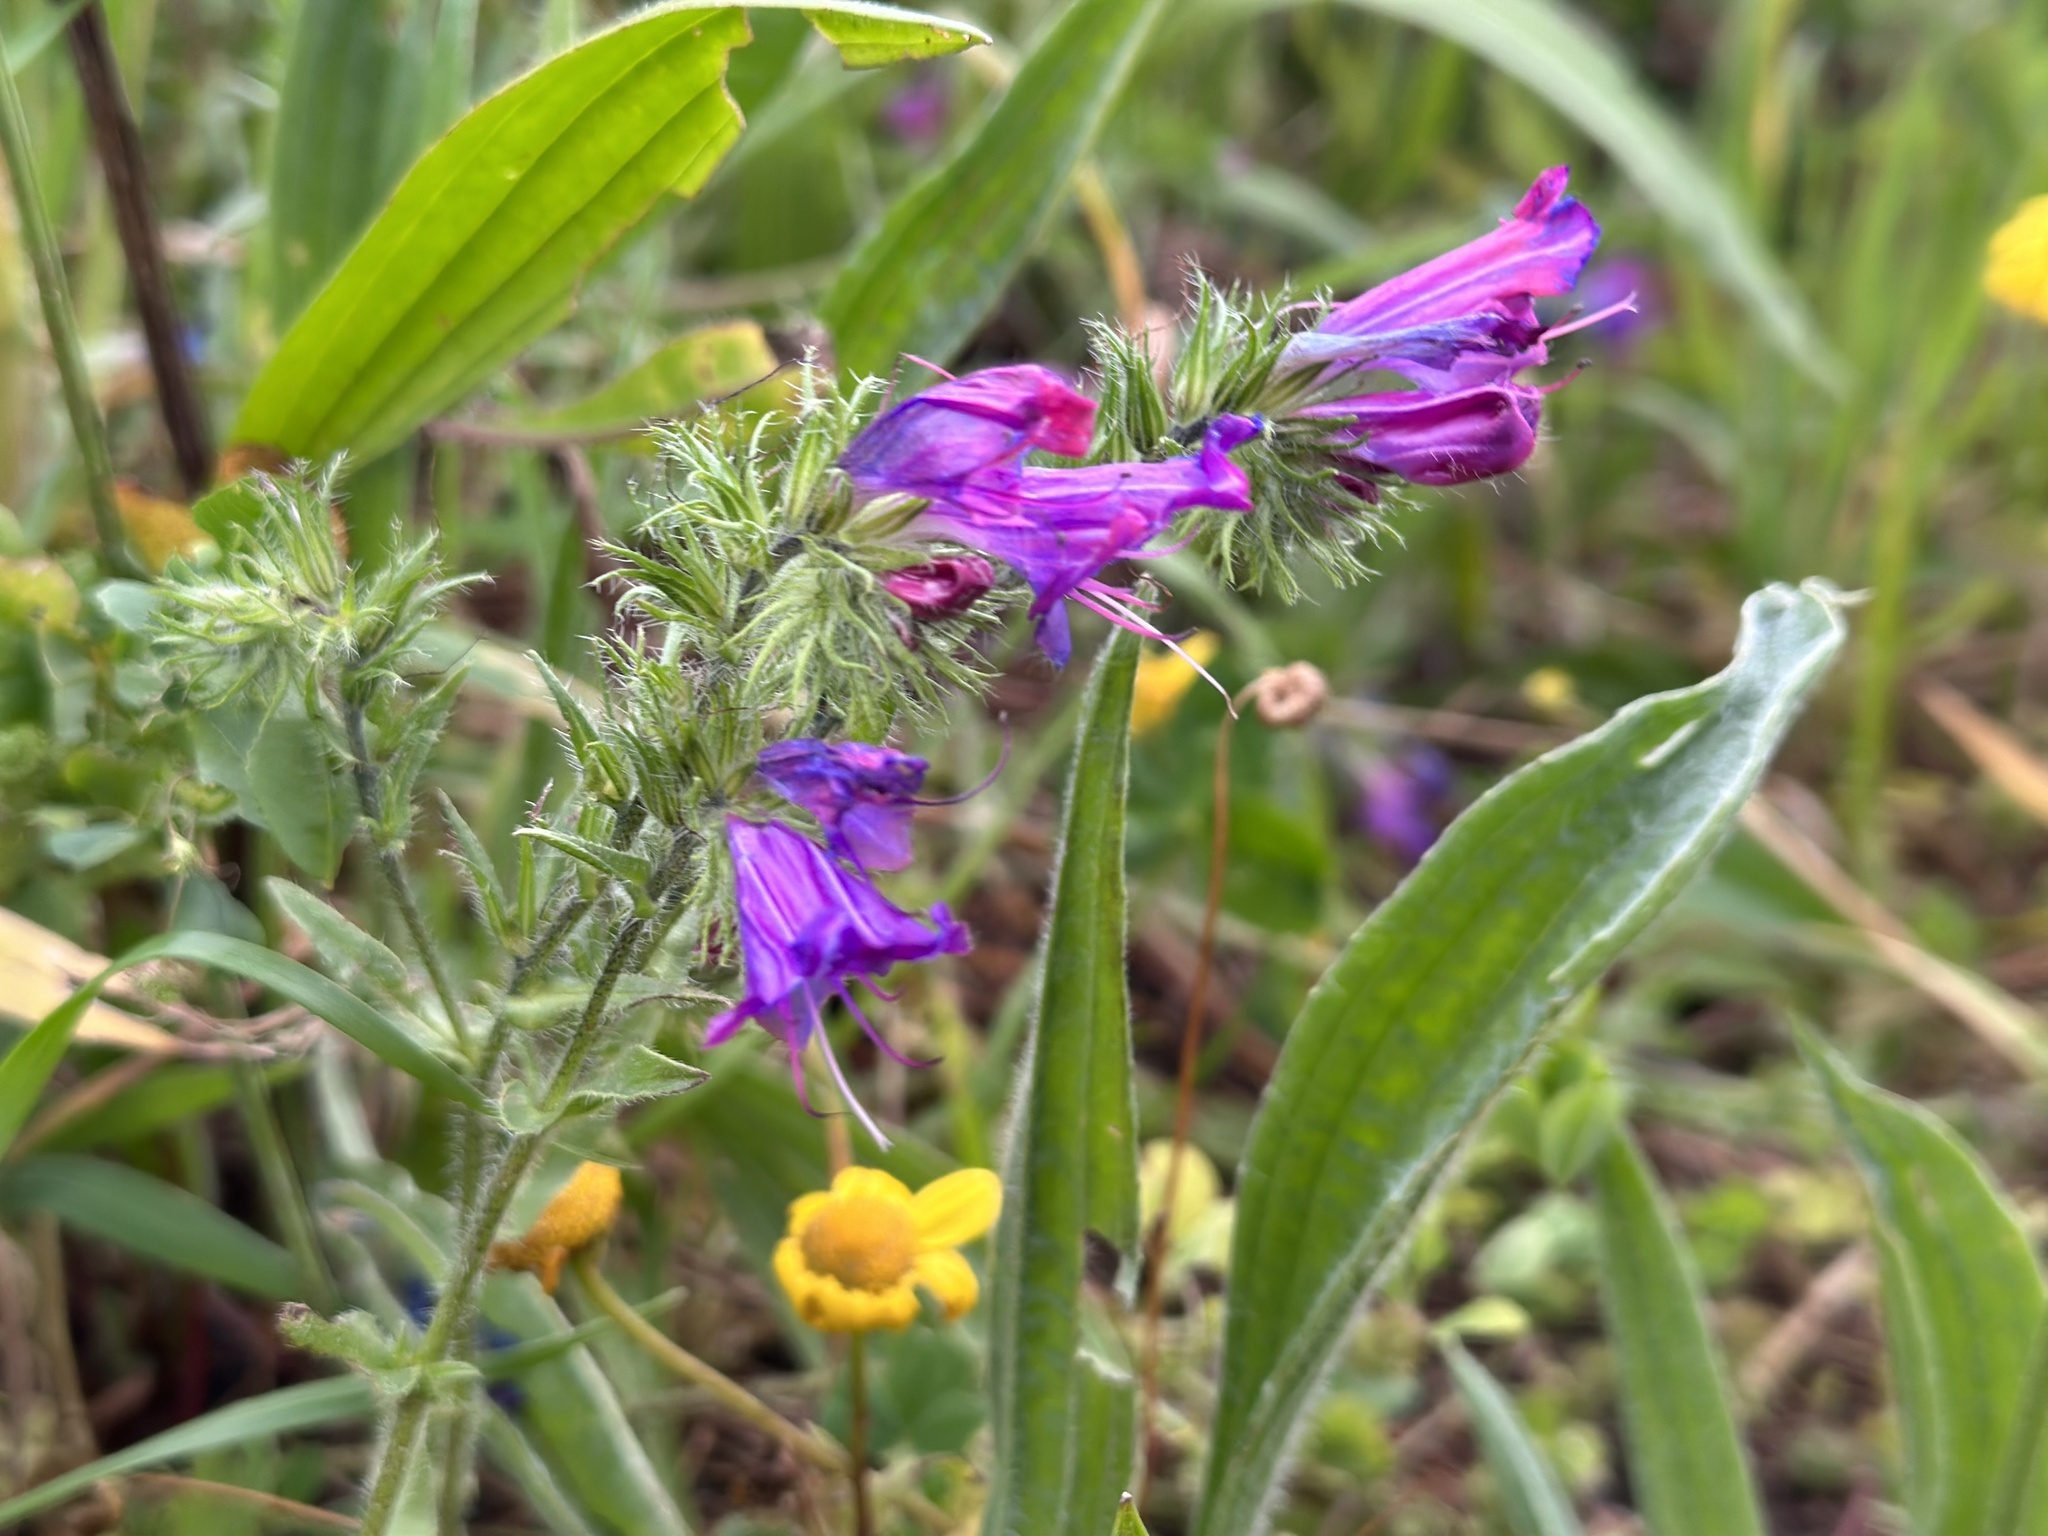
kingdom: Plantae
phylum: Tracheophyta
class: Magnoliopsida
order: Boraginales
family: Boraginaceae
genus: Echium
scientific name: Echium plantagineum
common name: Purple viper's-bugloss
